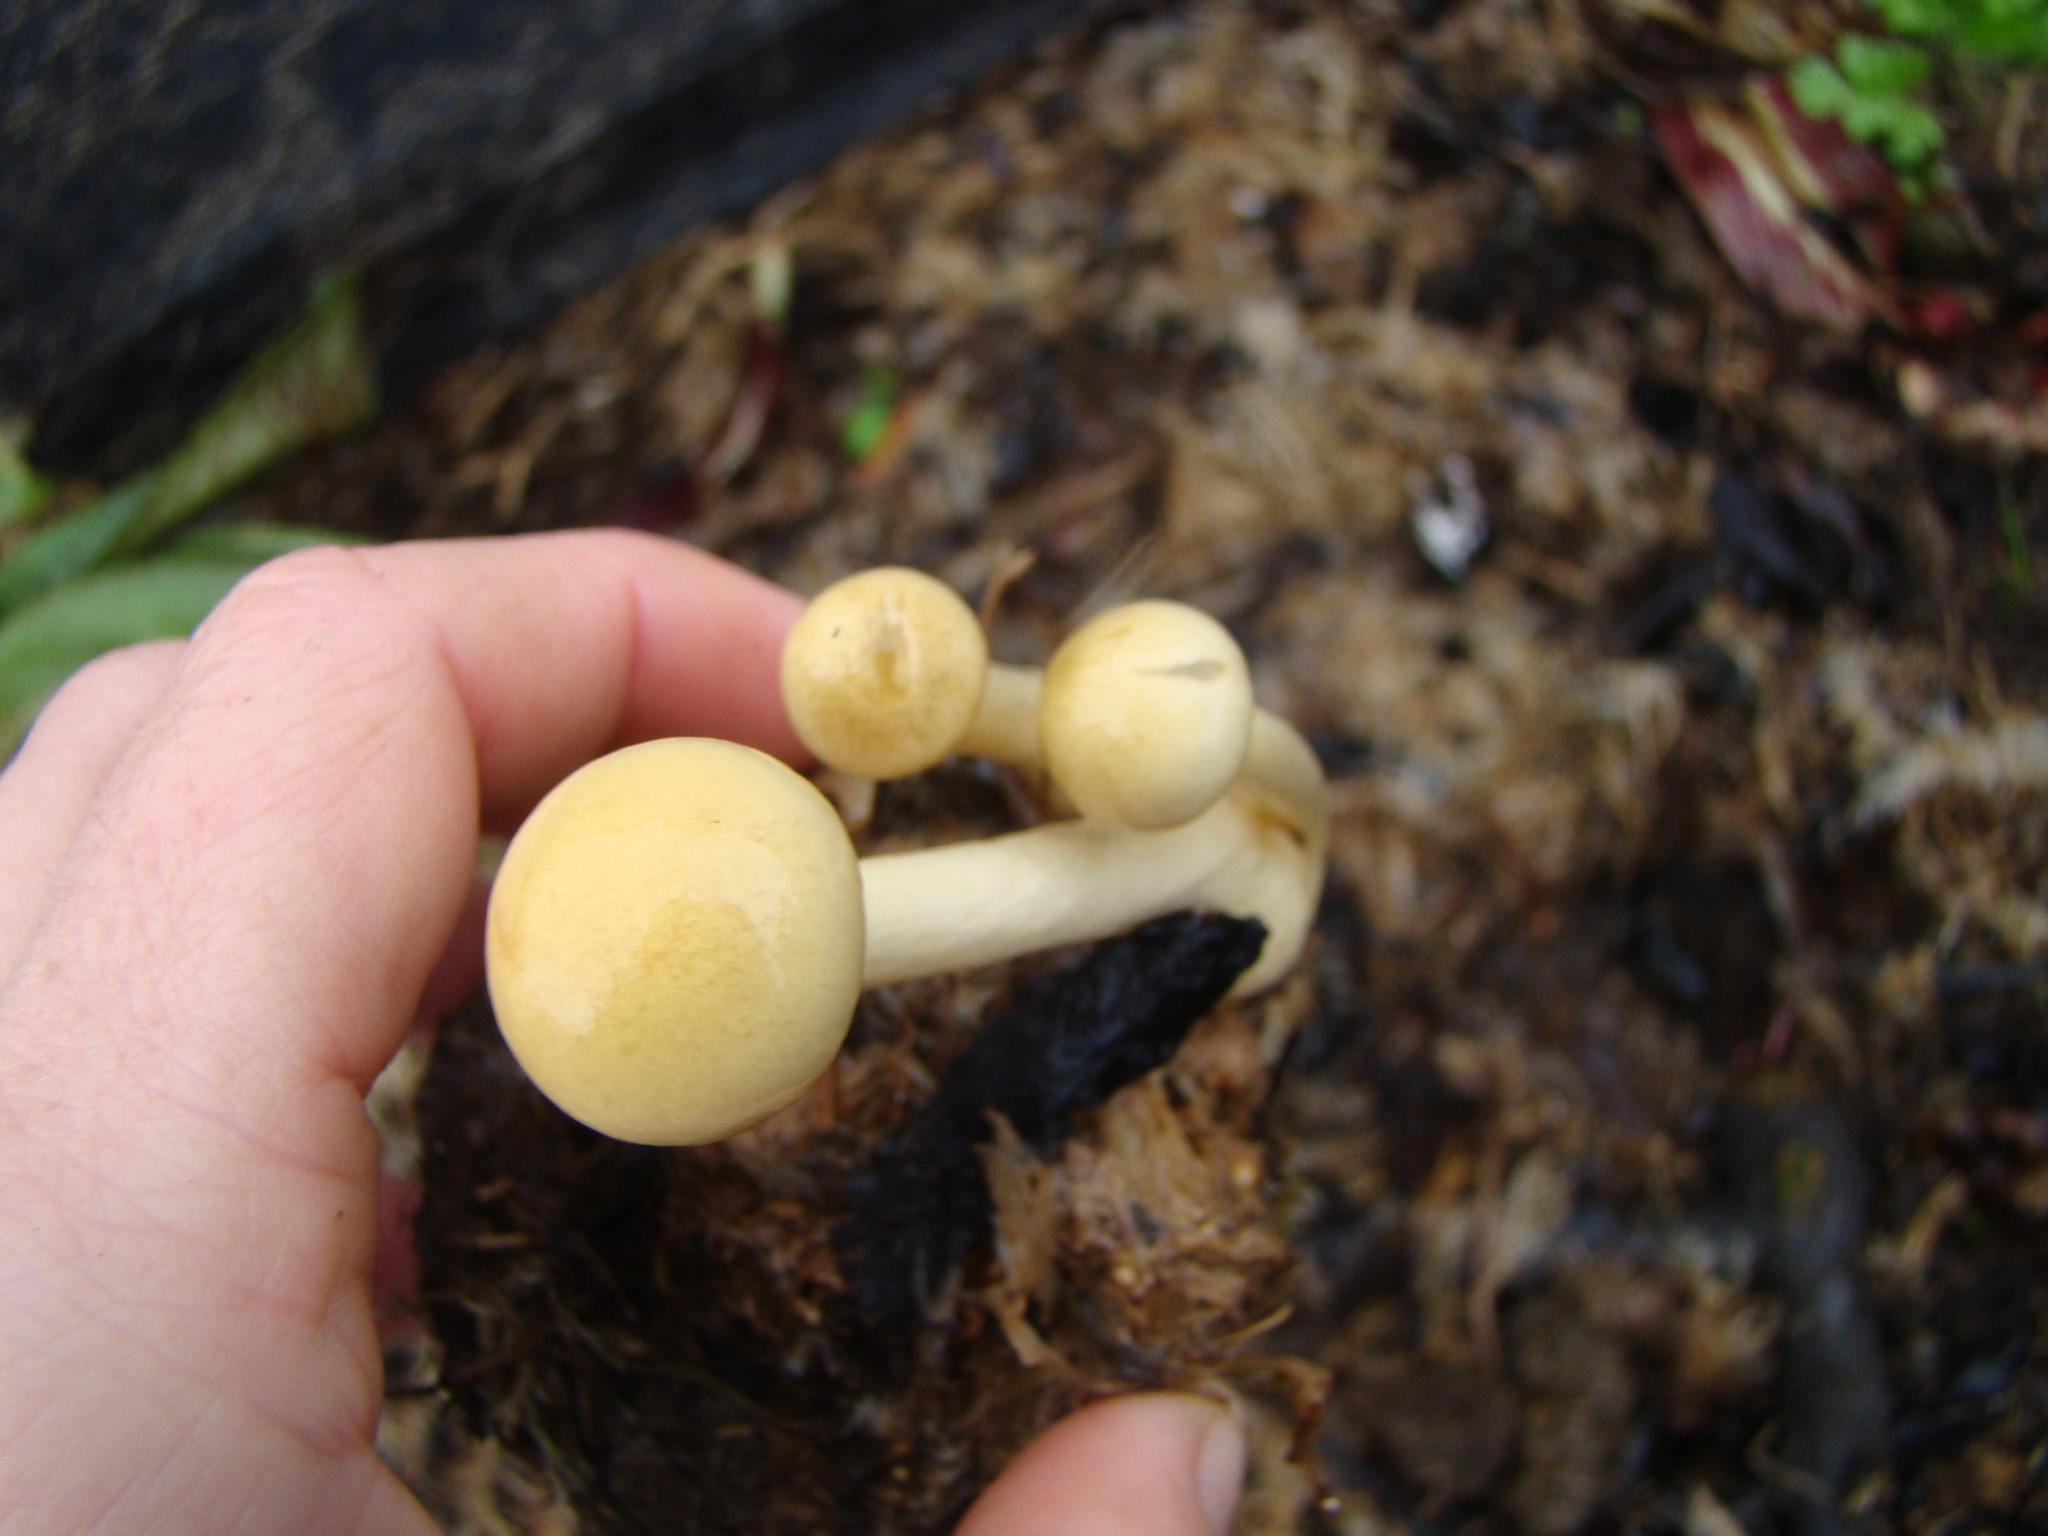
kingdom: Fungi
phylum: Basidiomycota
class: Agaricomycetes
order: Agaricales
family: Strophariaceae
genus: Protostropharia
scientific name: Protostropharia semiglobata
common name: Dung roundhead
